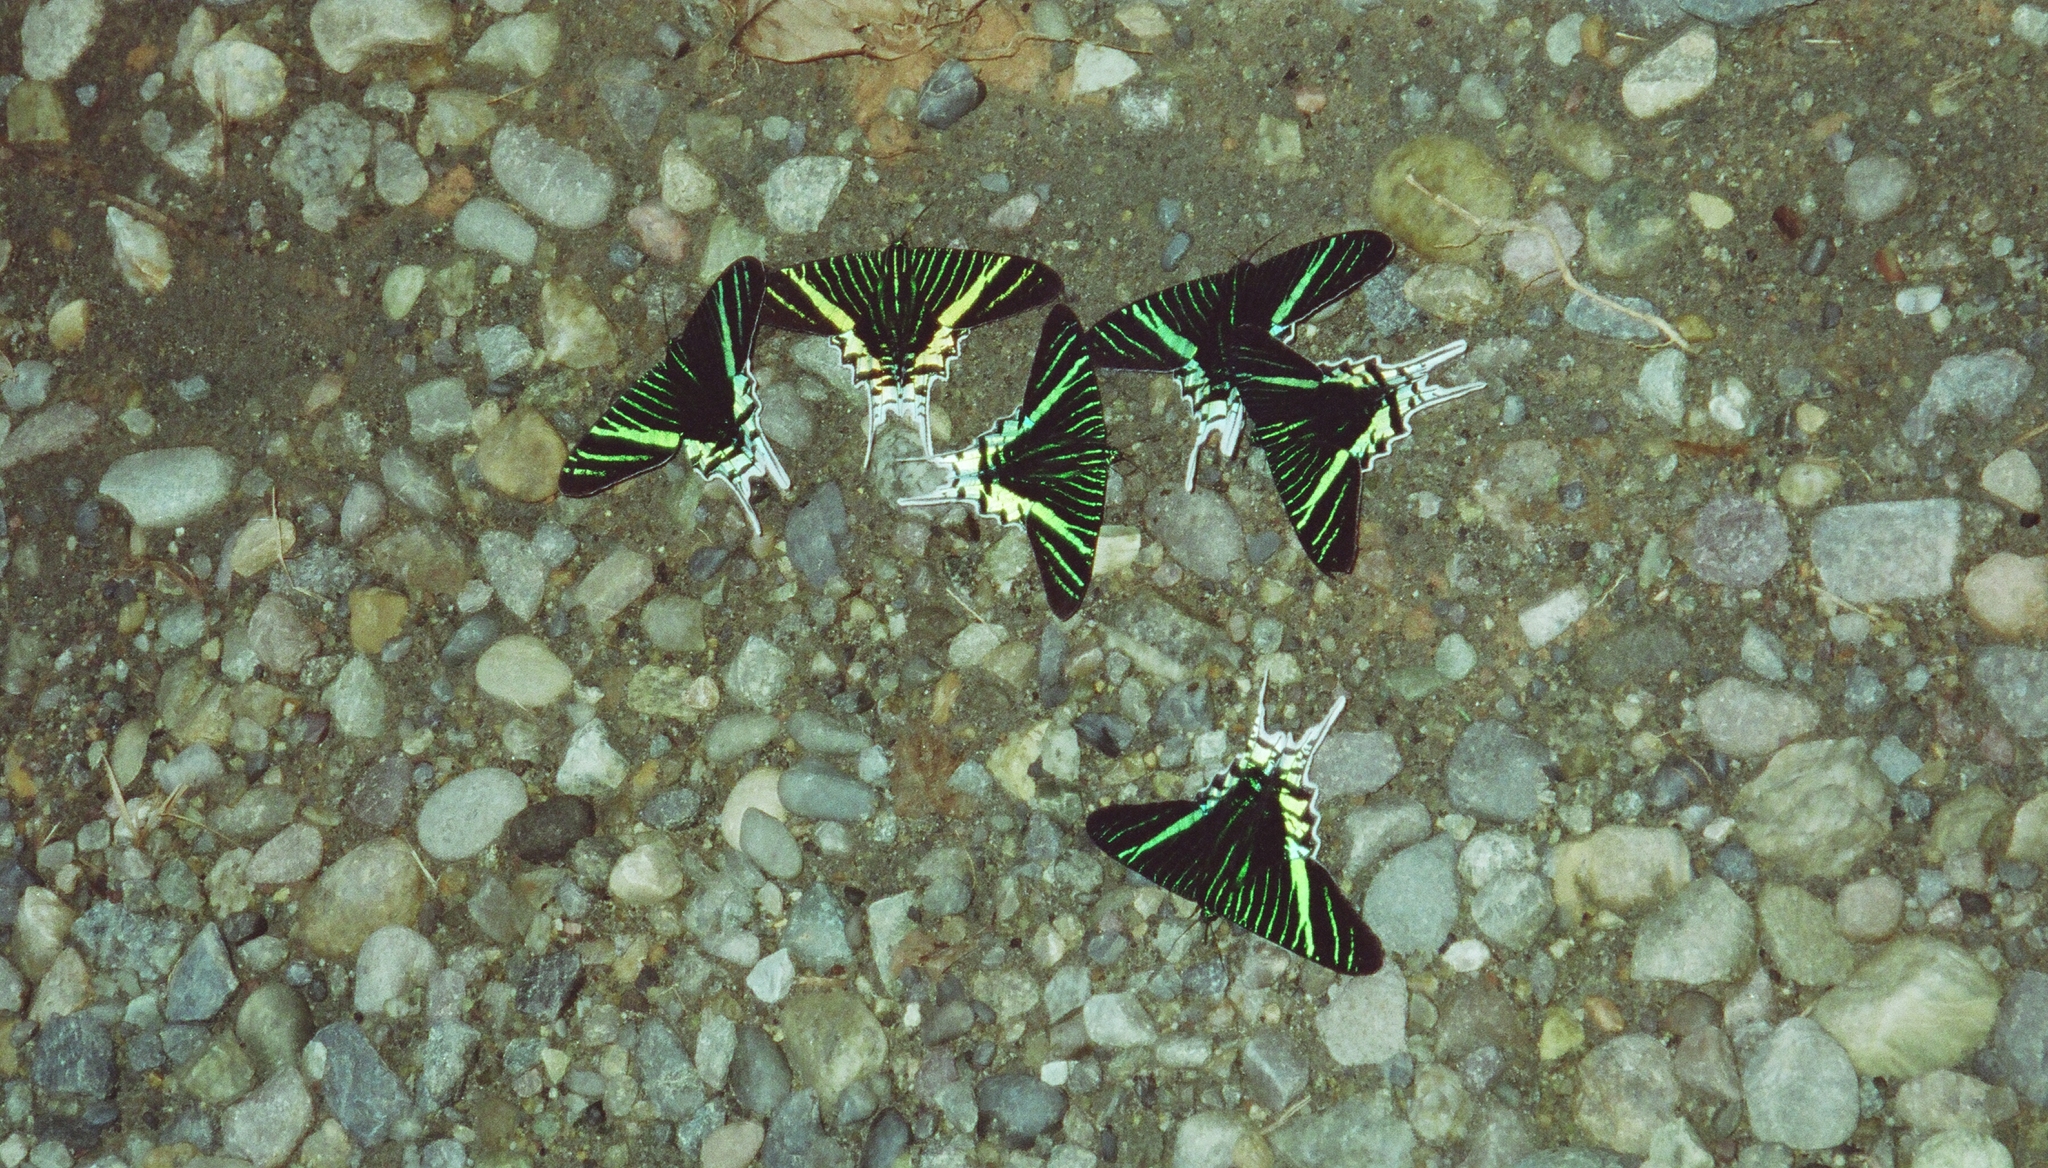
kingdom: Animalia
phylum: Arthropoda
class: Insecta
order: Lepidoptera
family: Uraniidae
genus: Urania
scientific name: Urania leilus
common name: Peacock moth
